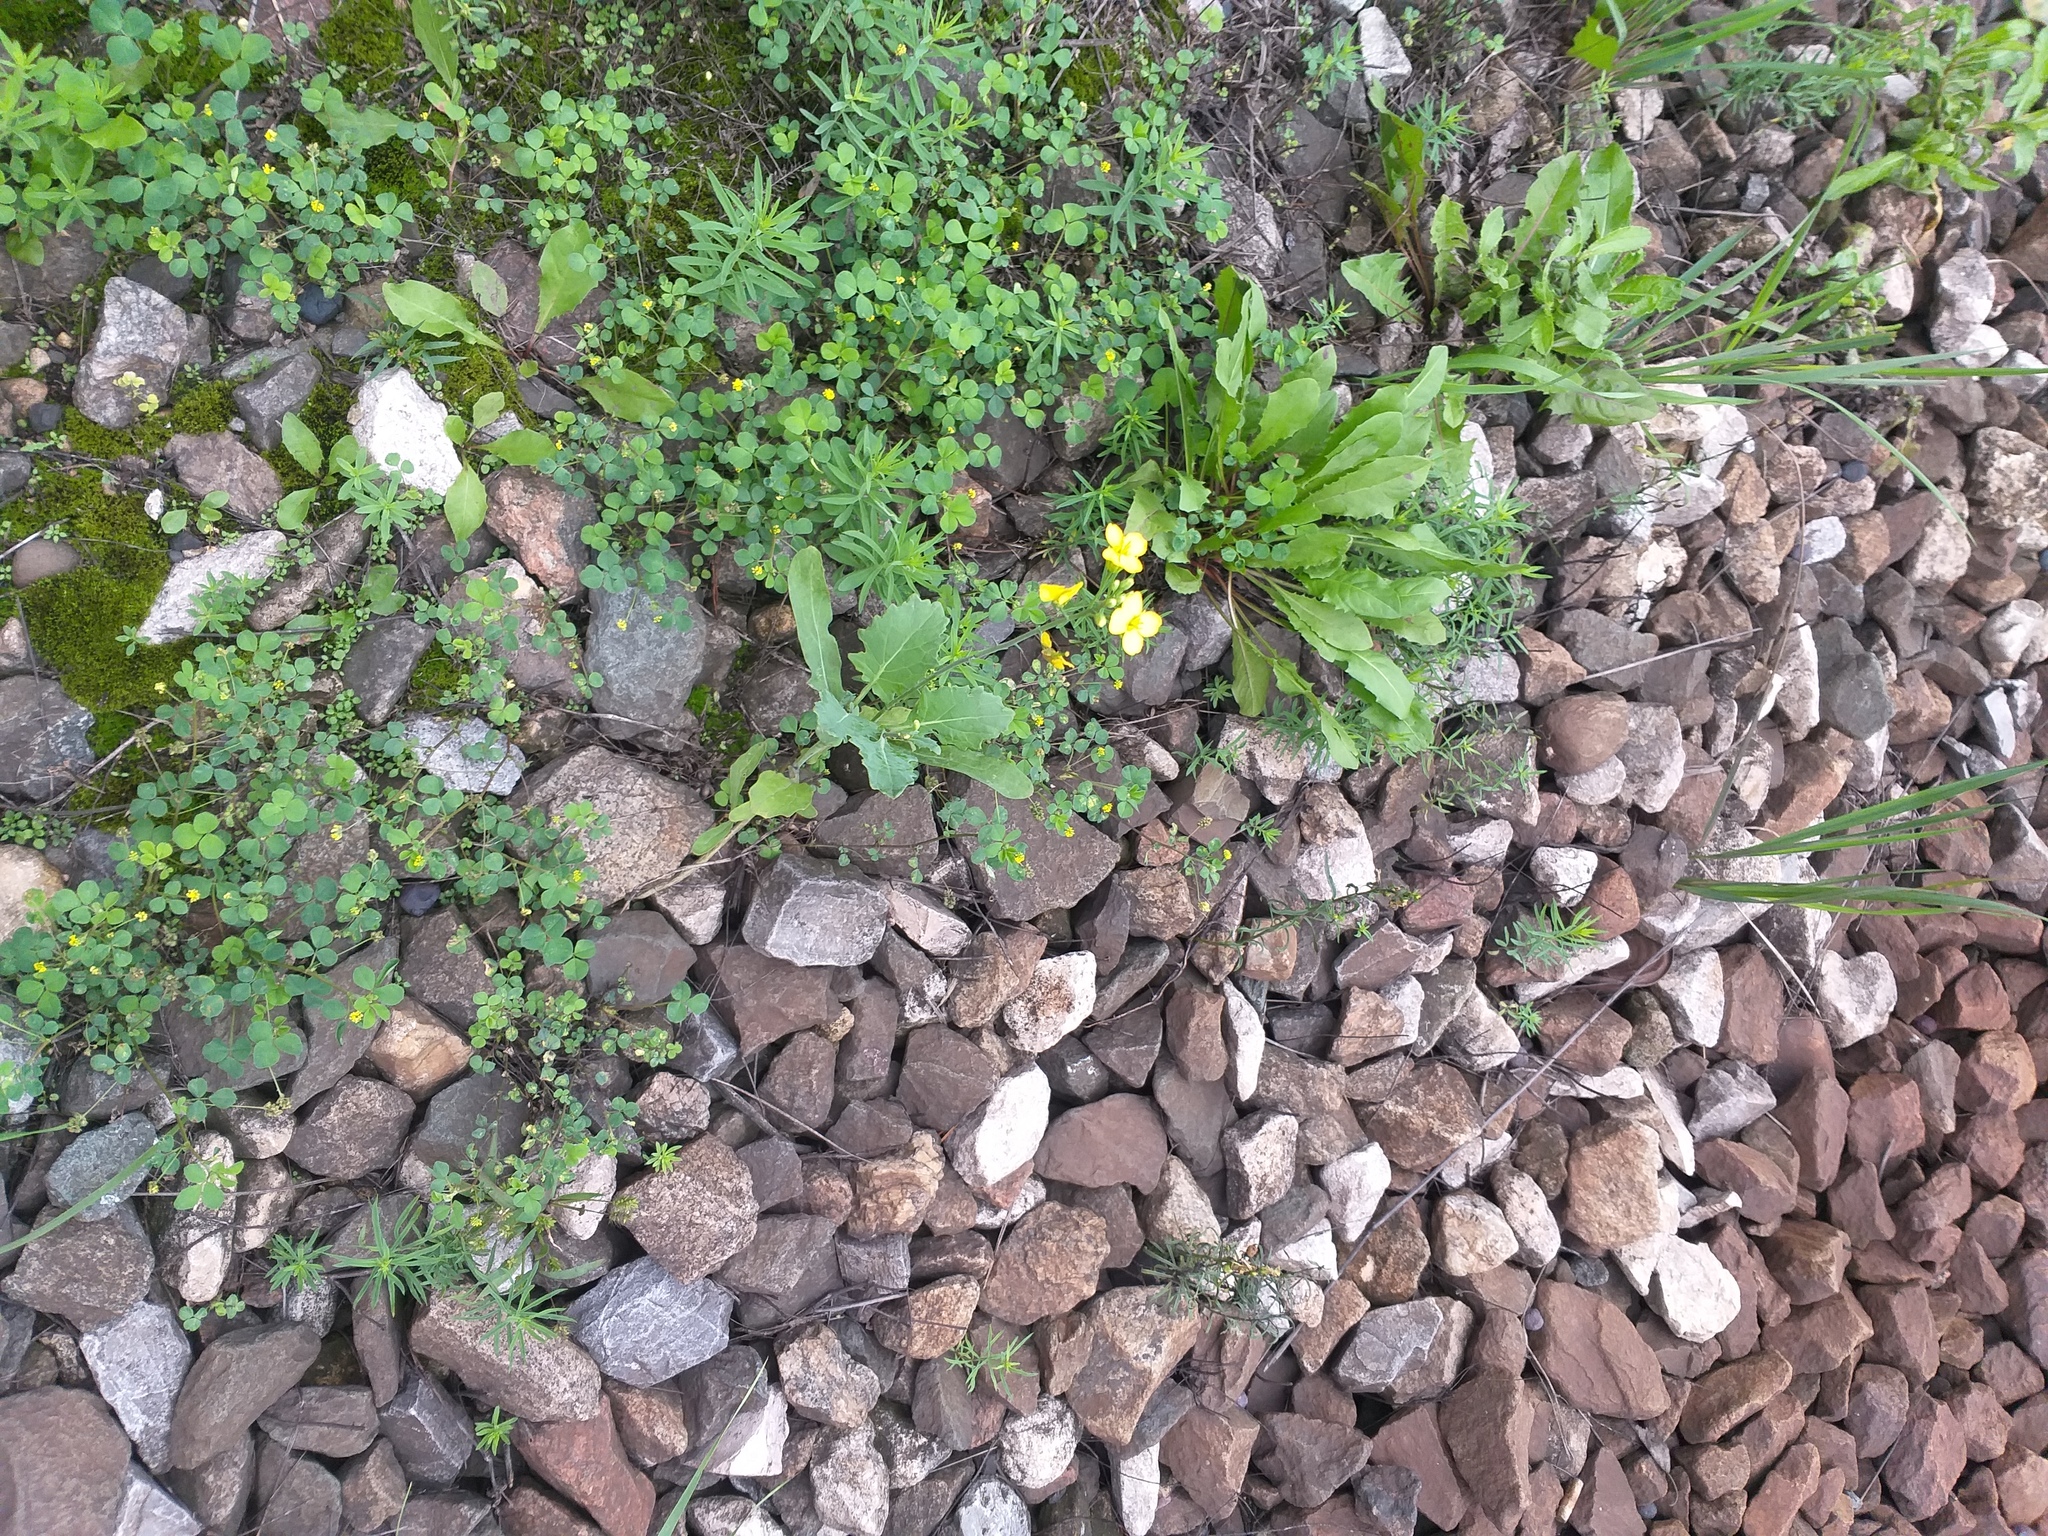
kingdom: Plantae
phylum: Tracheophyta
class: Magnoliopsida
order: Brassicales
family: Brassicaceae
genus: Brassica
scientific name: Brassica napus
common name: Rape
